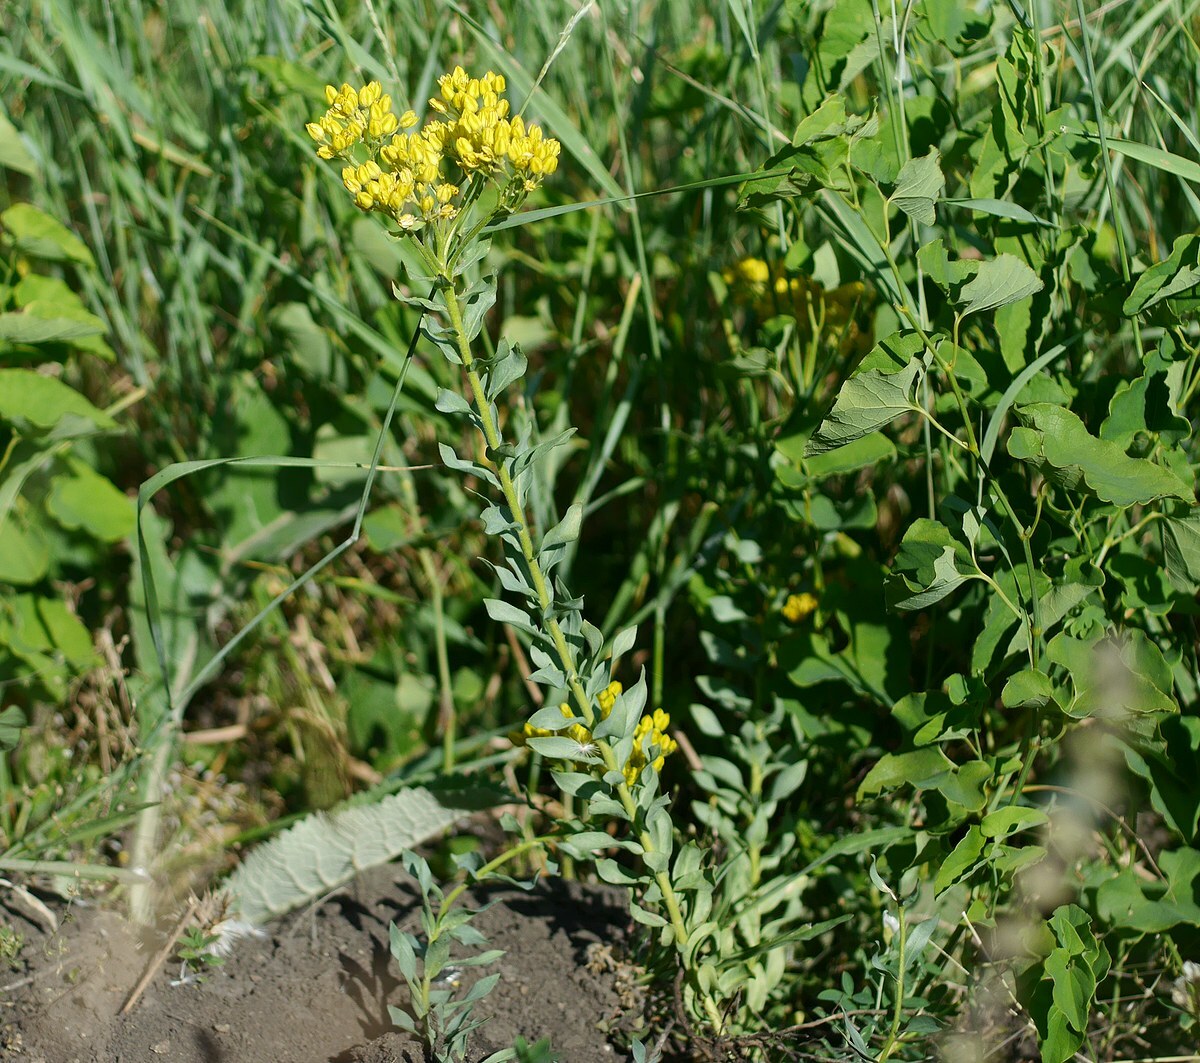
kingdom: Plantae
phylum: Tracheophyta
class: Magnoliopsida
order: Sapindales
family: Rutaceae
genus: Haplophyllum
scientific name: Haplophyllum suaveolens
